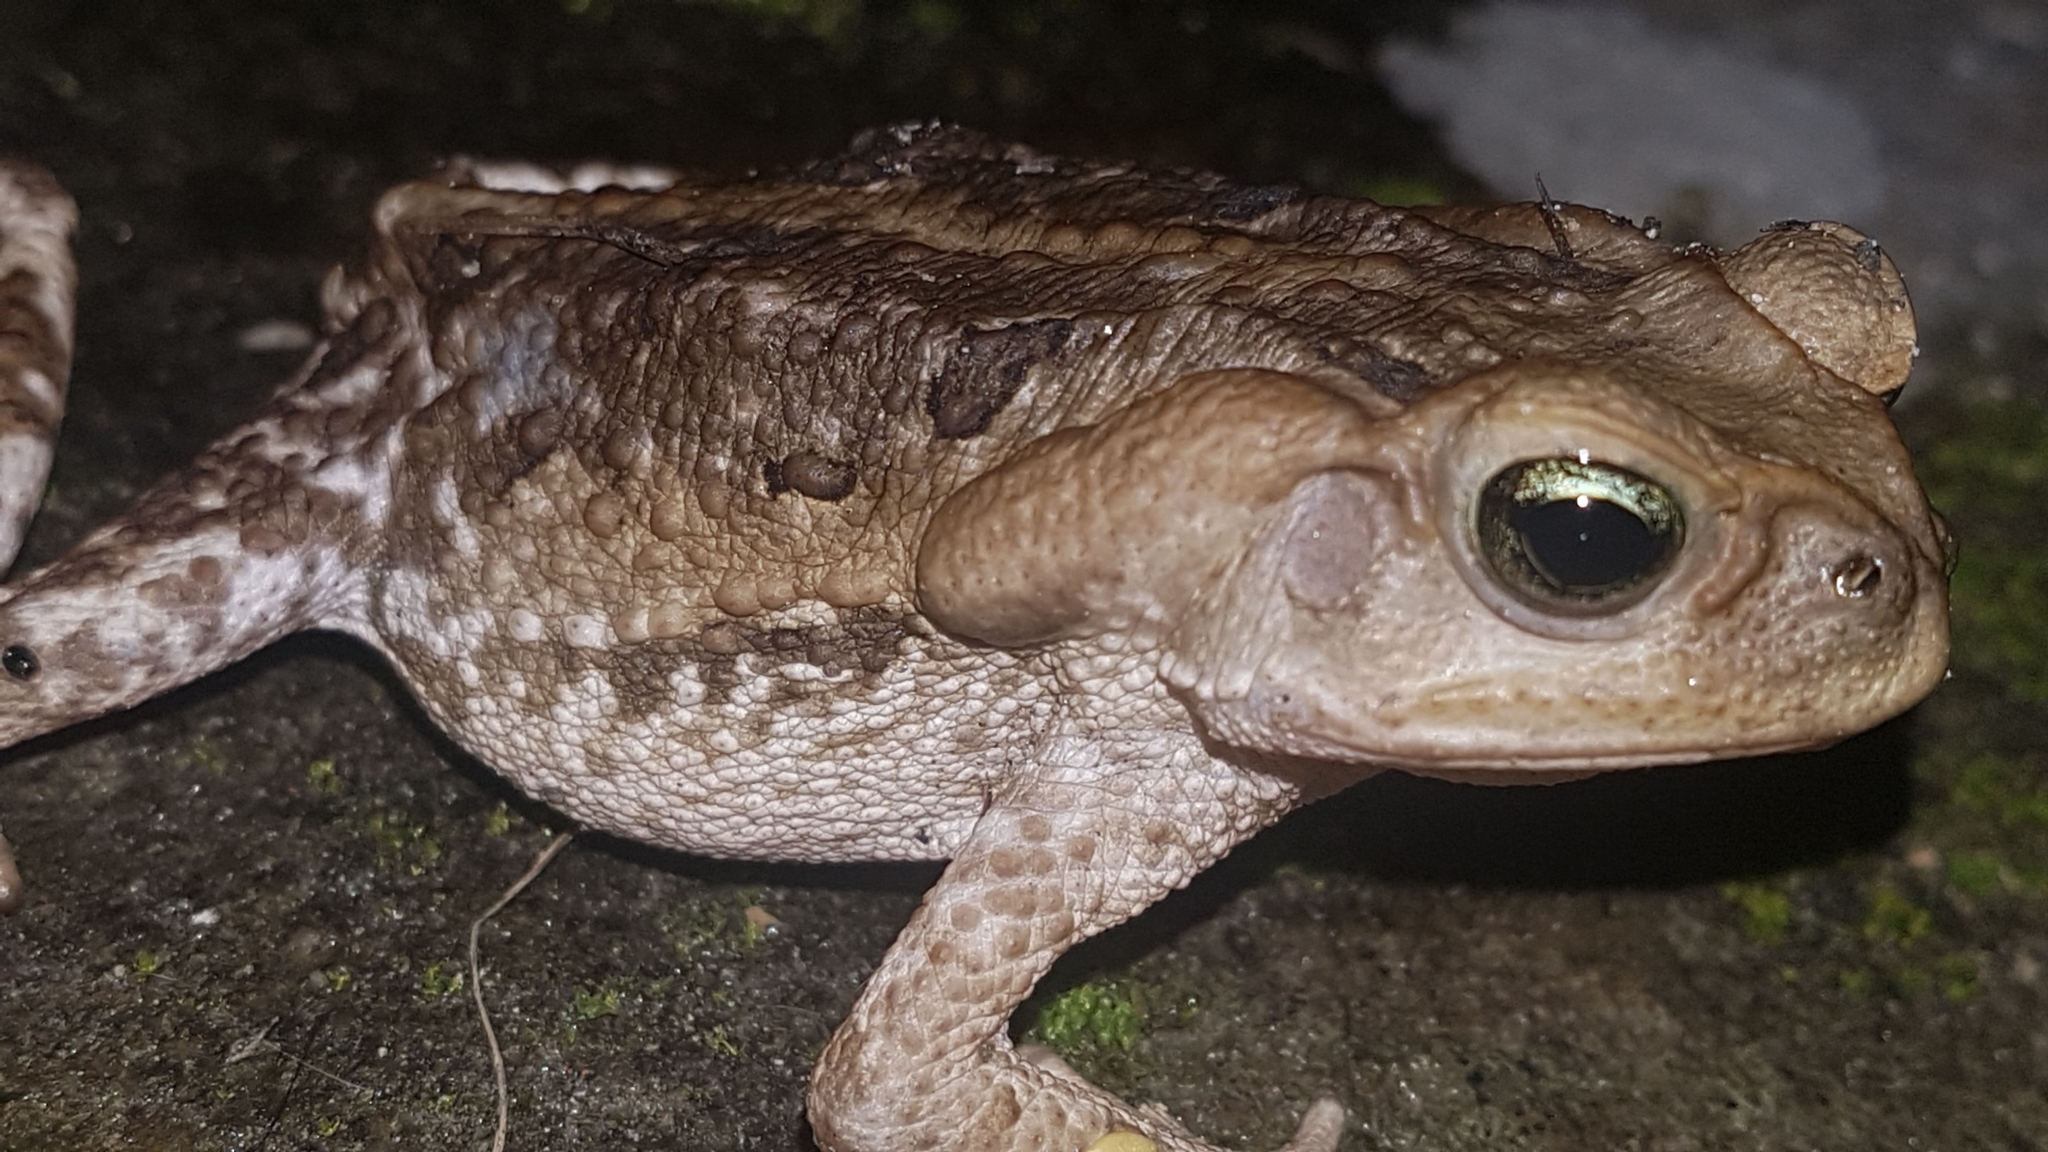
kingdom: Animalia
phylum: Chordata
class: Amphibia
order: Anura
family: Bufonidae
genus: Rhinella
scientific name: Rhinella icterica
